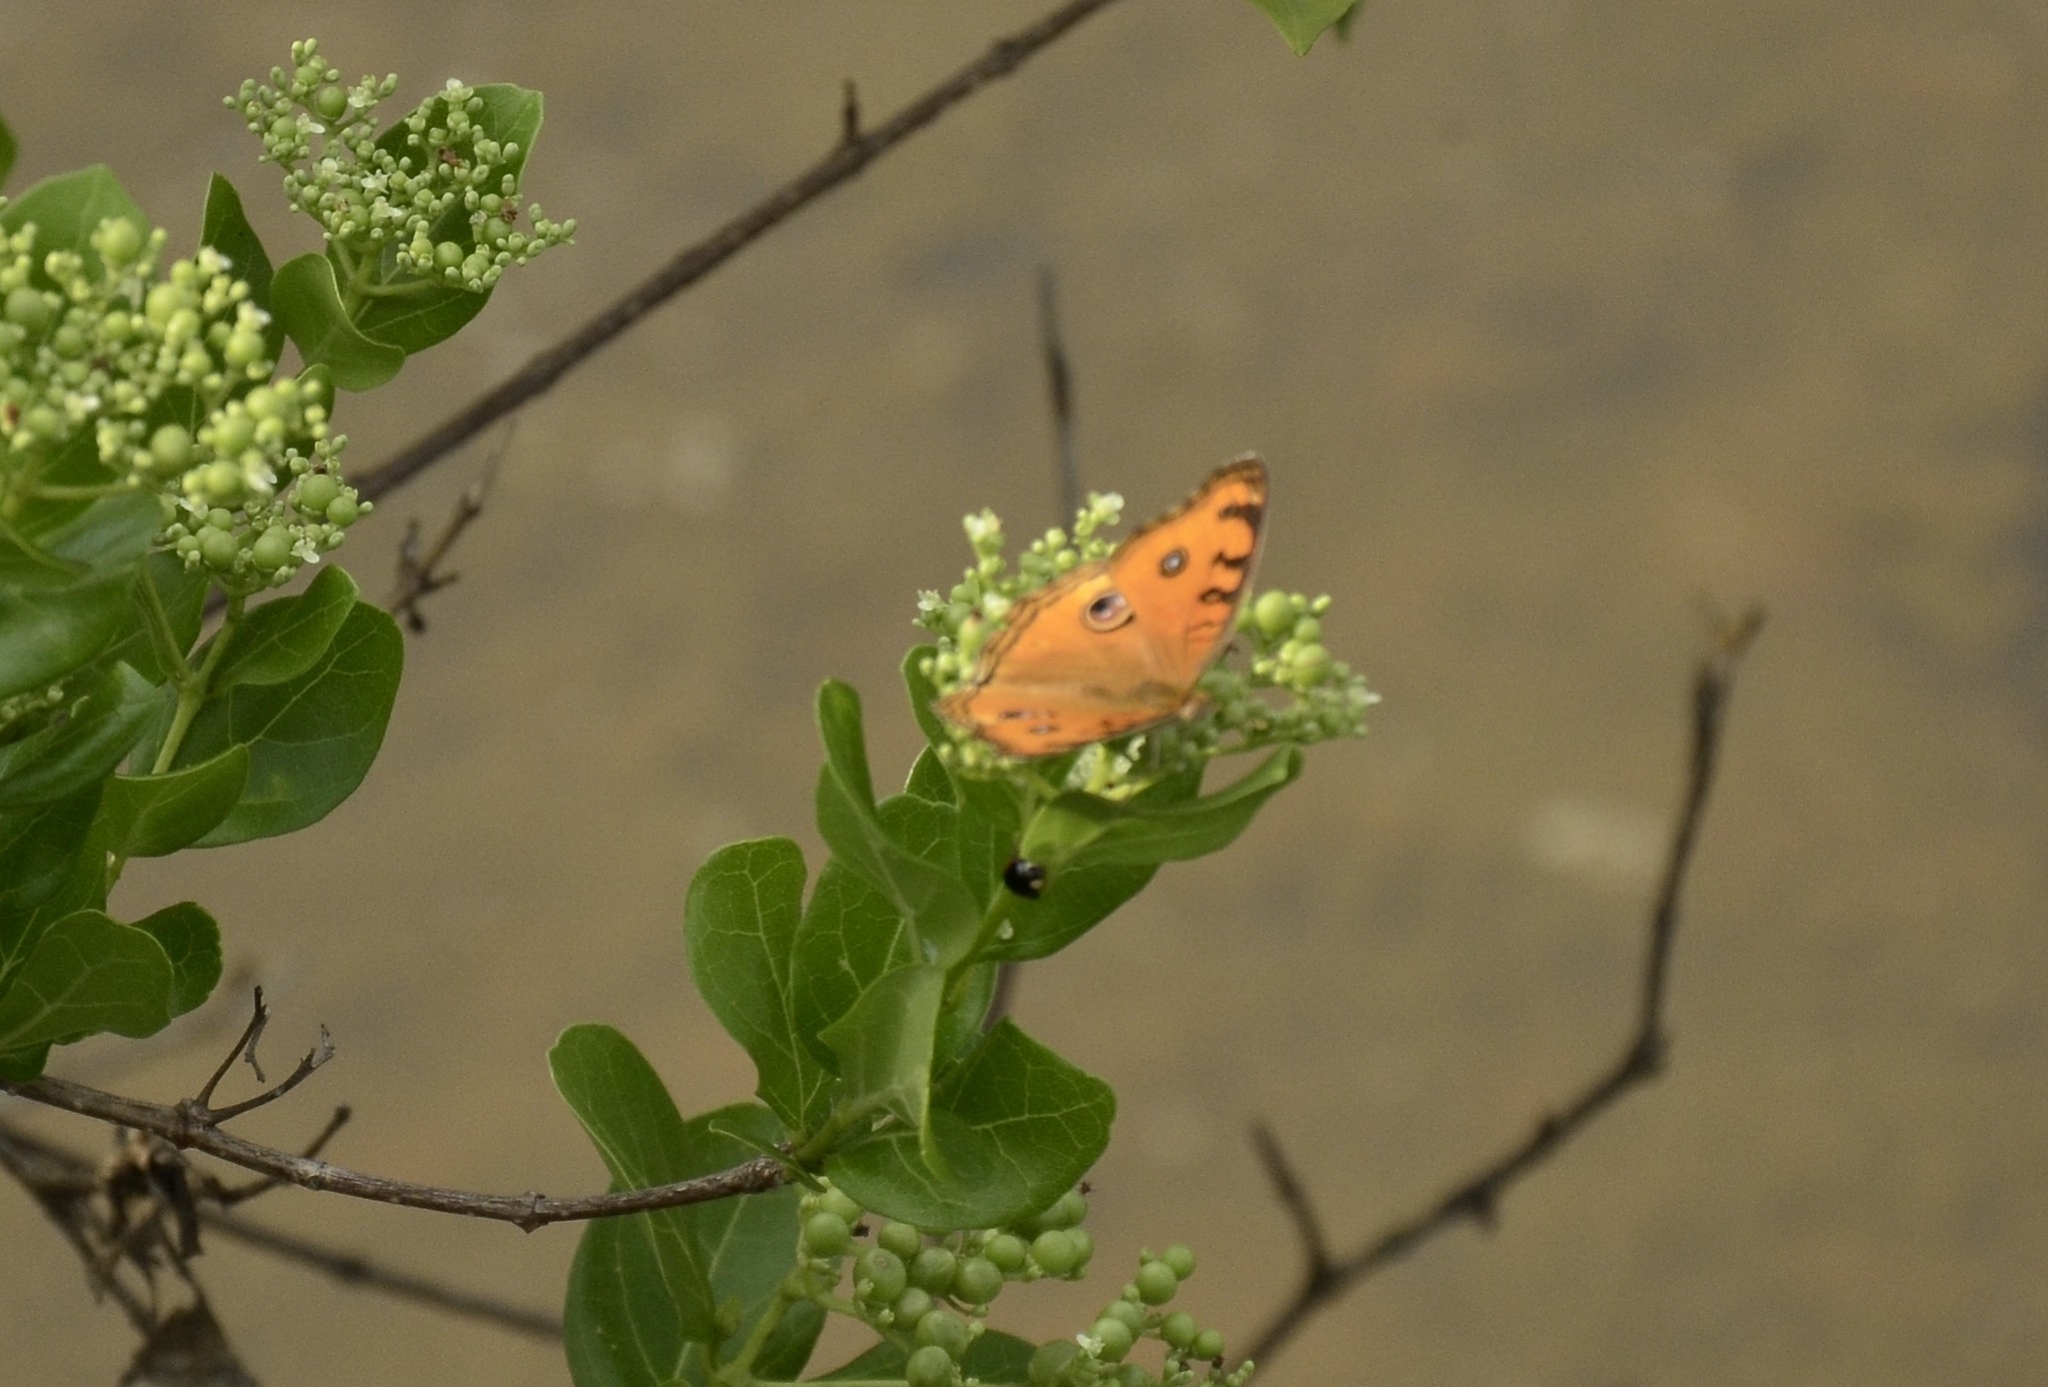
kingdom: Animalia
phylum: Arthropoda
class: Insecta
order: Lepidoptera
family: Nymphalidae
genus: Junonia
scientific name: Junonia almana
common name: Peacock pansy
